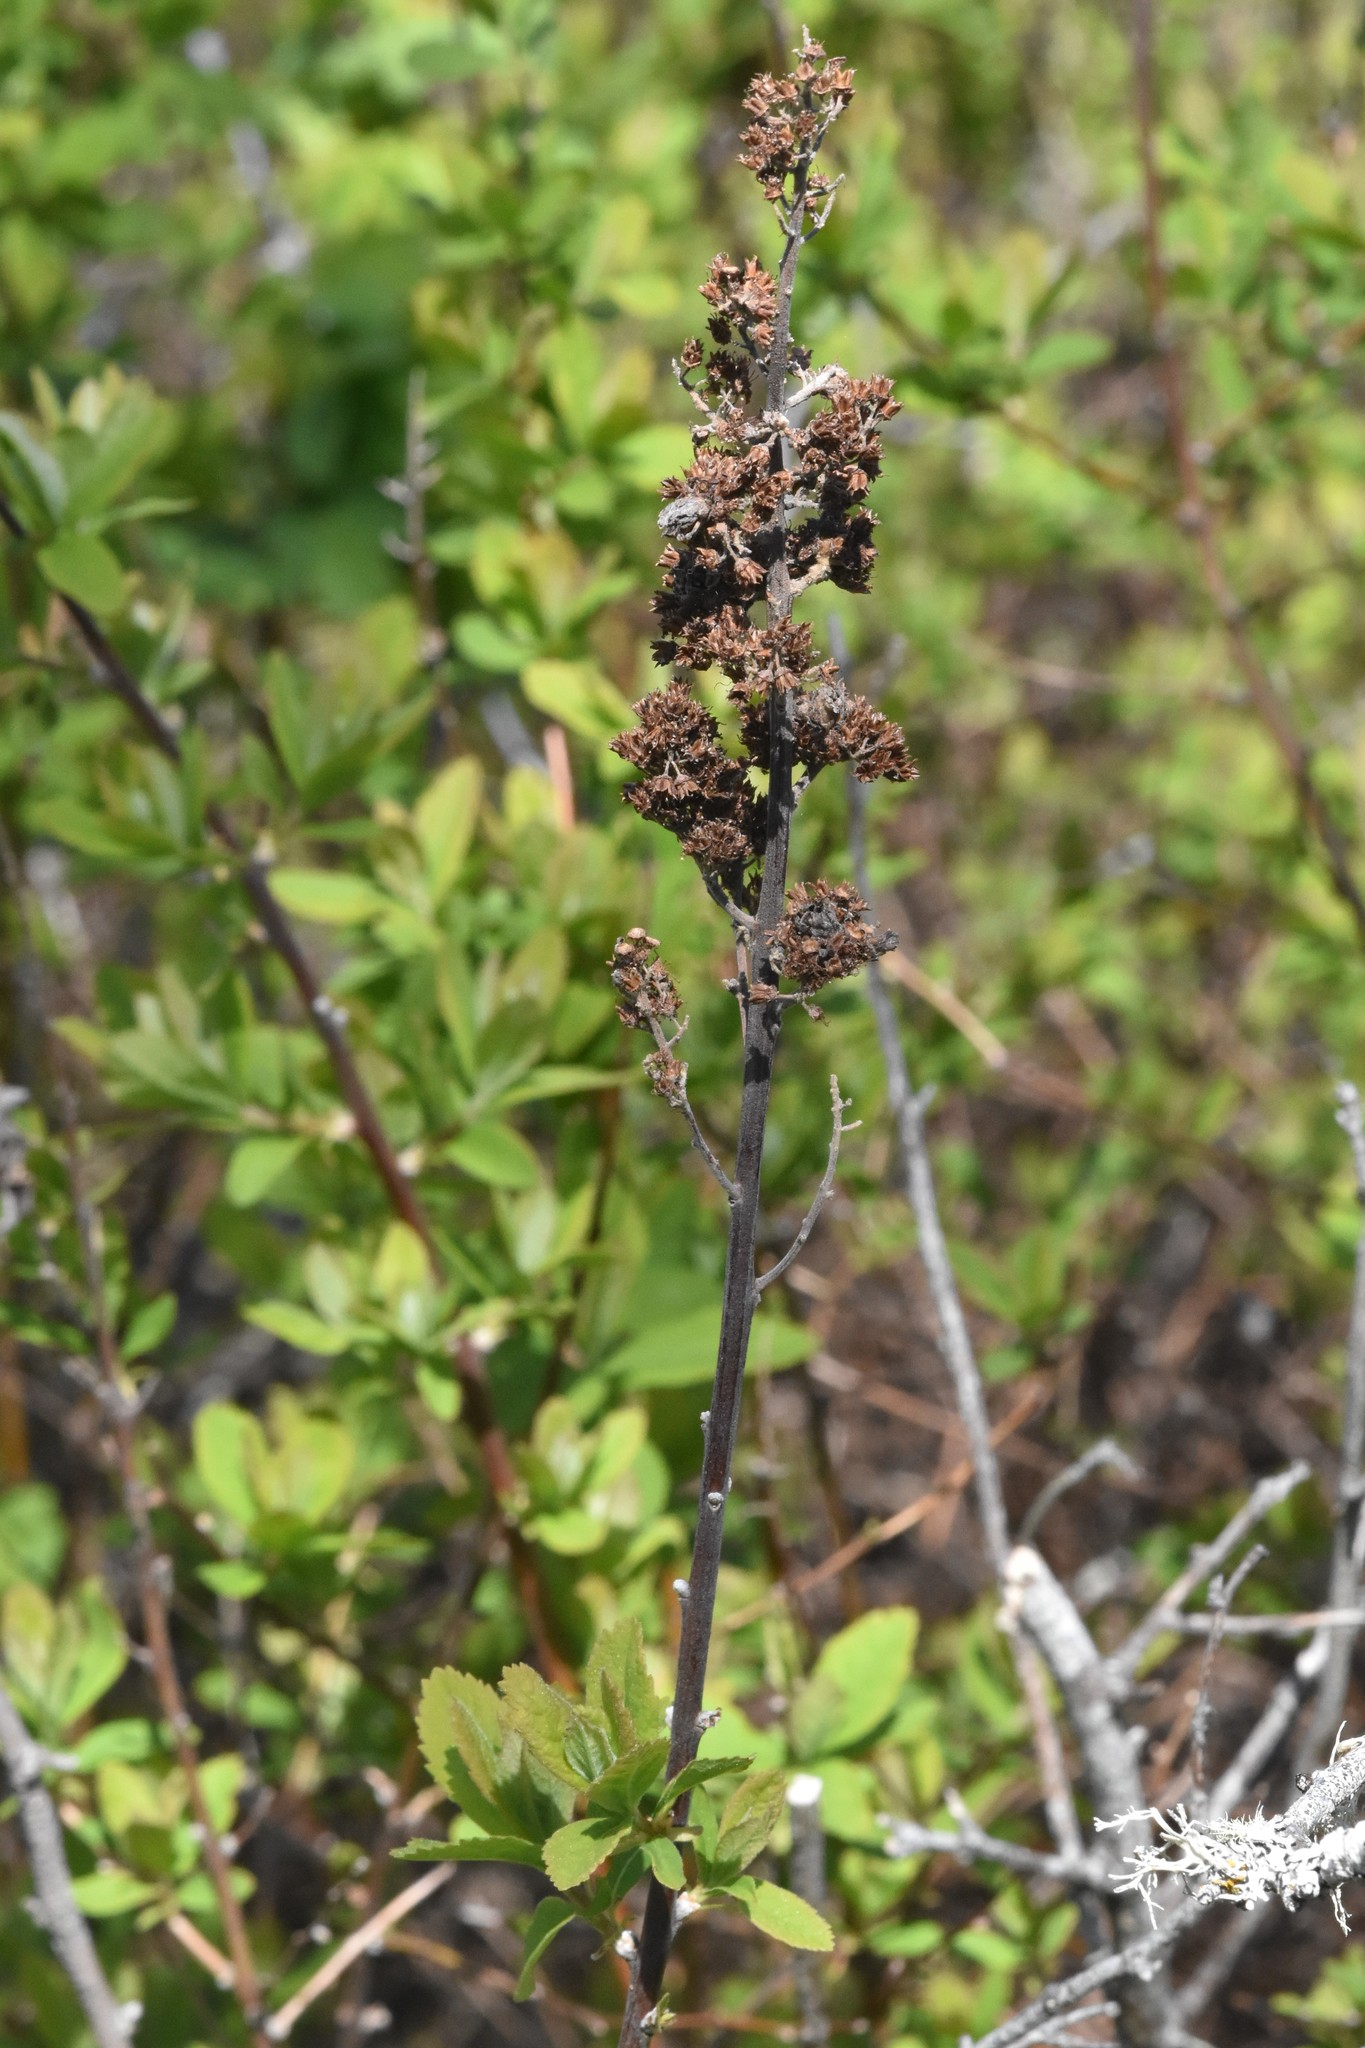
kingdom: Plantae
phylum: Tracheophyta
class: Magnoliopsida
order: Rosales
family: Rosaceae
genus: Spiraea
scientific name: Spiraea douglasii
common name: Steeplebush
